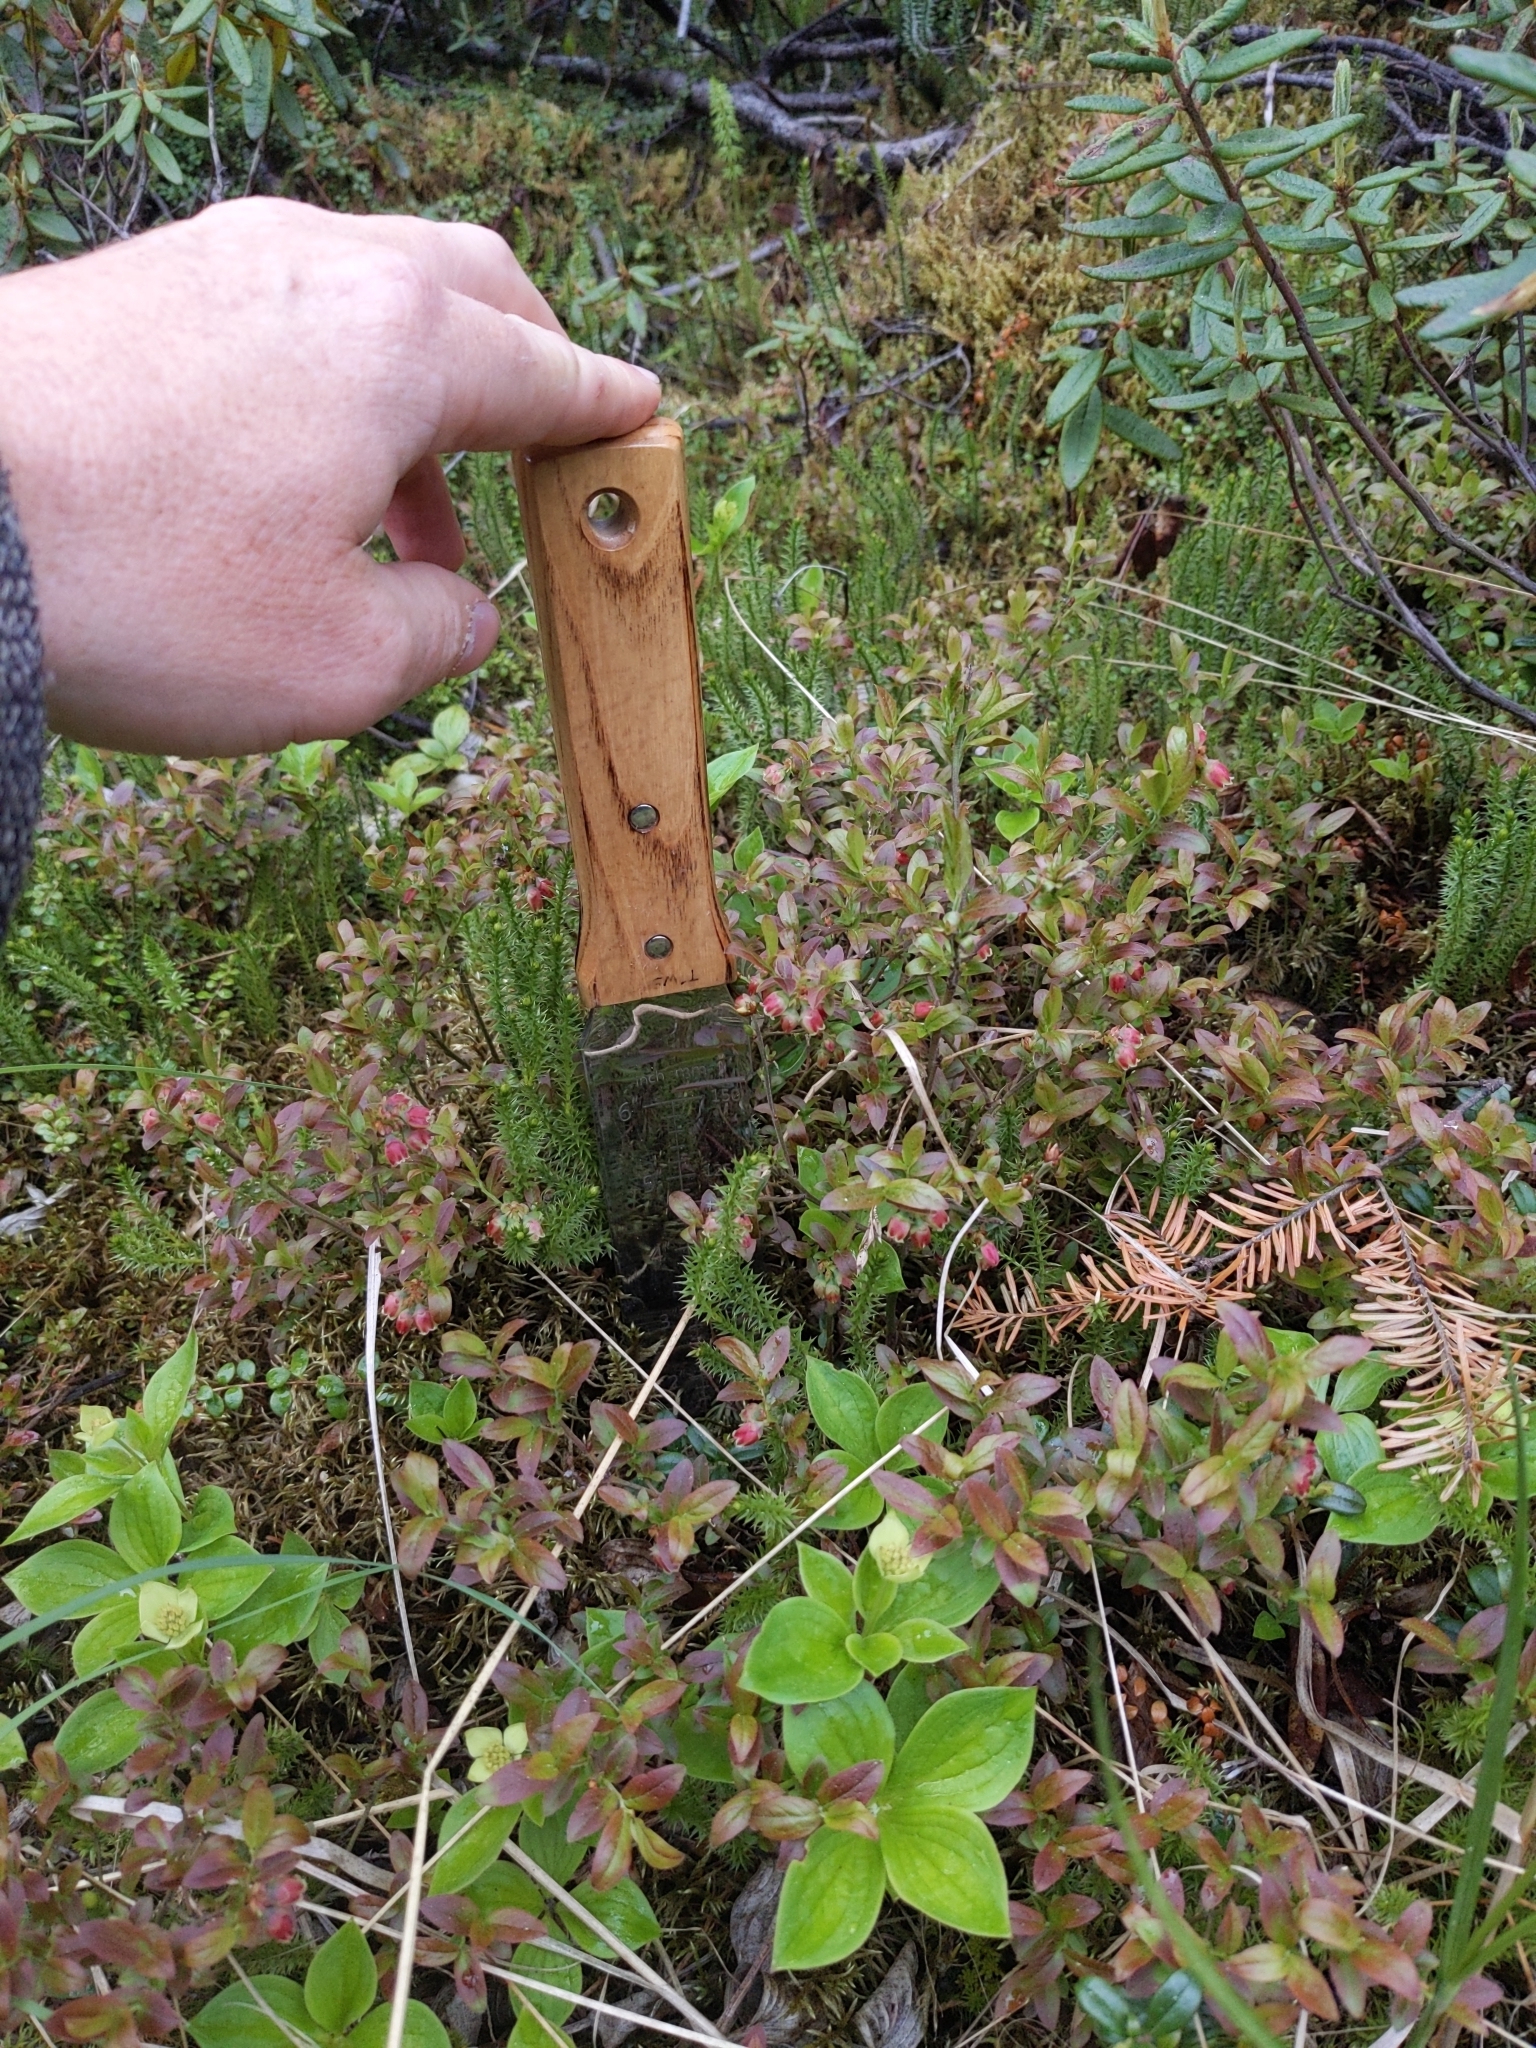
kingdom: Plantae
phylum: Tracheophyta
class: Magnoliopsida
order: Ericales
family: Ericaceae
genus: Vaccinium
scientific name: Vaccinium myrtilloides
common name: Canada blueberry
